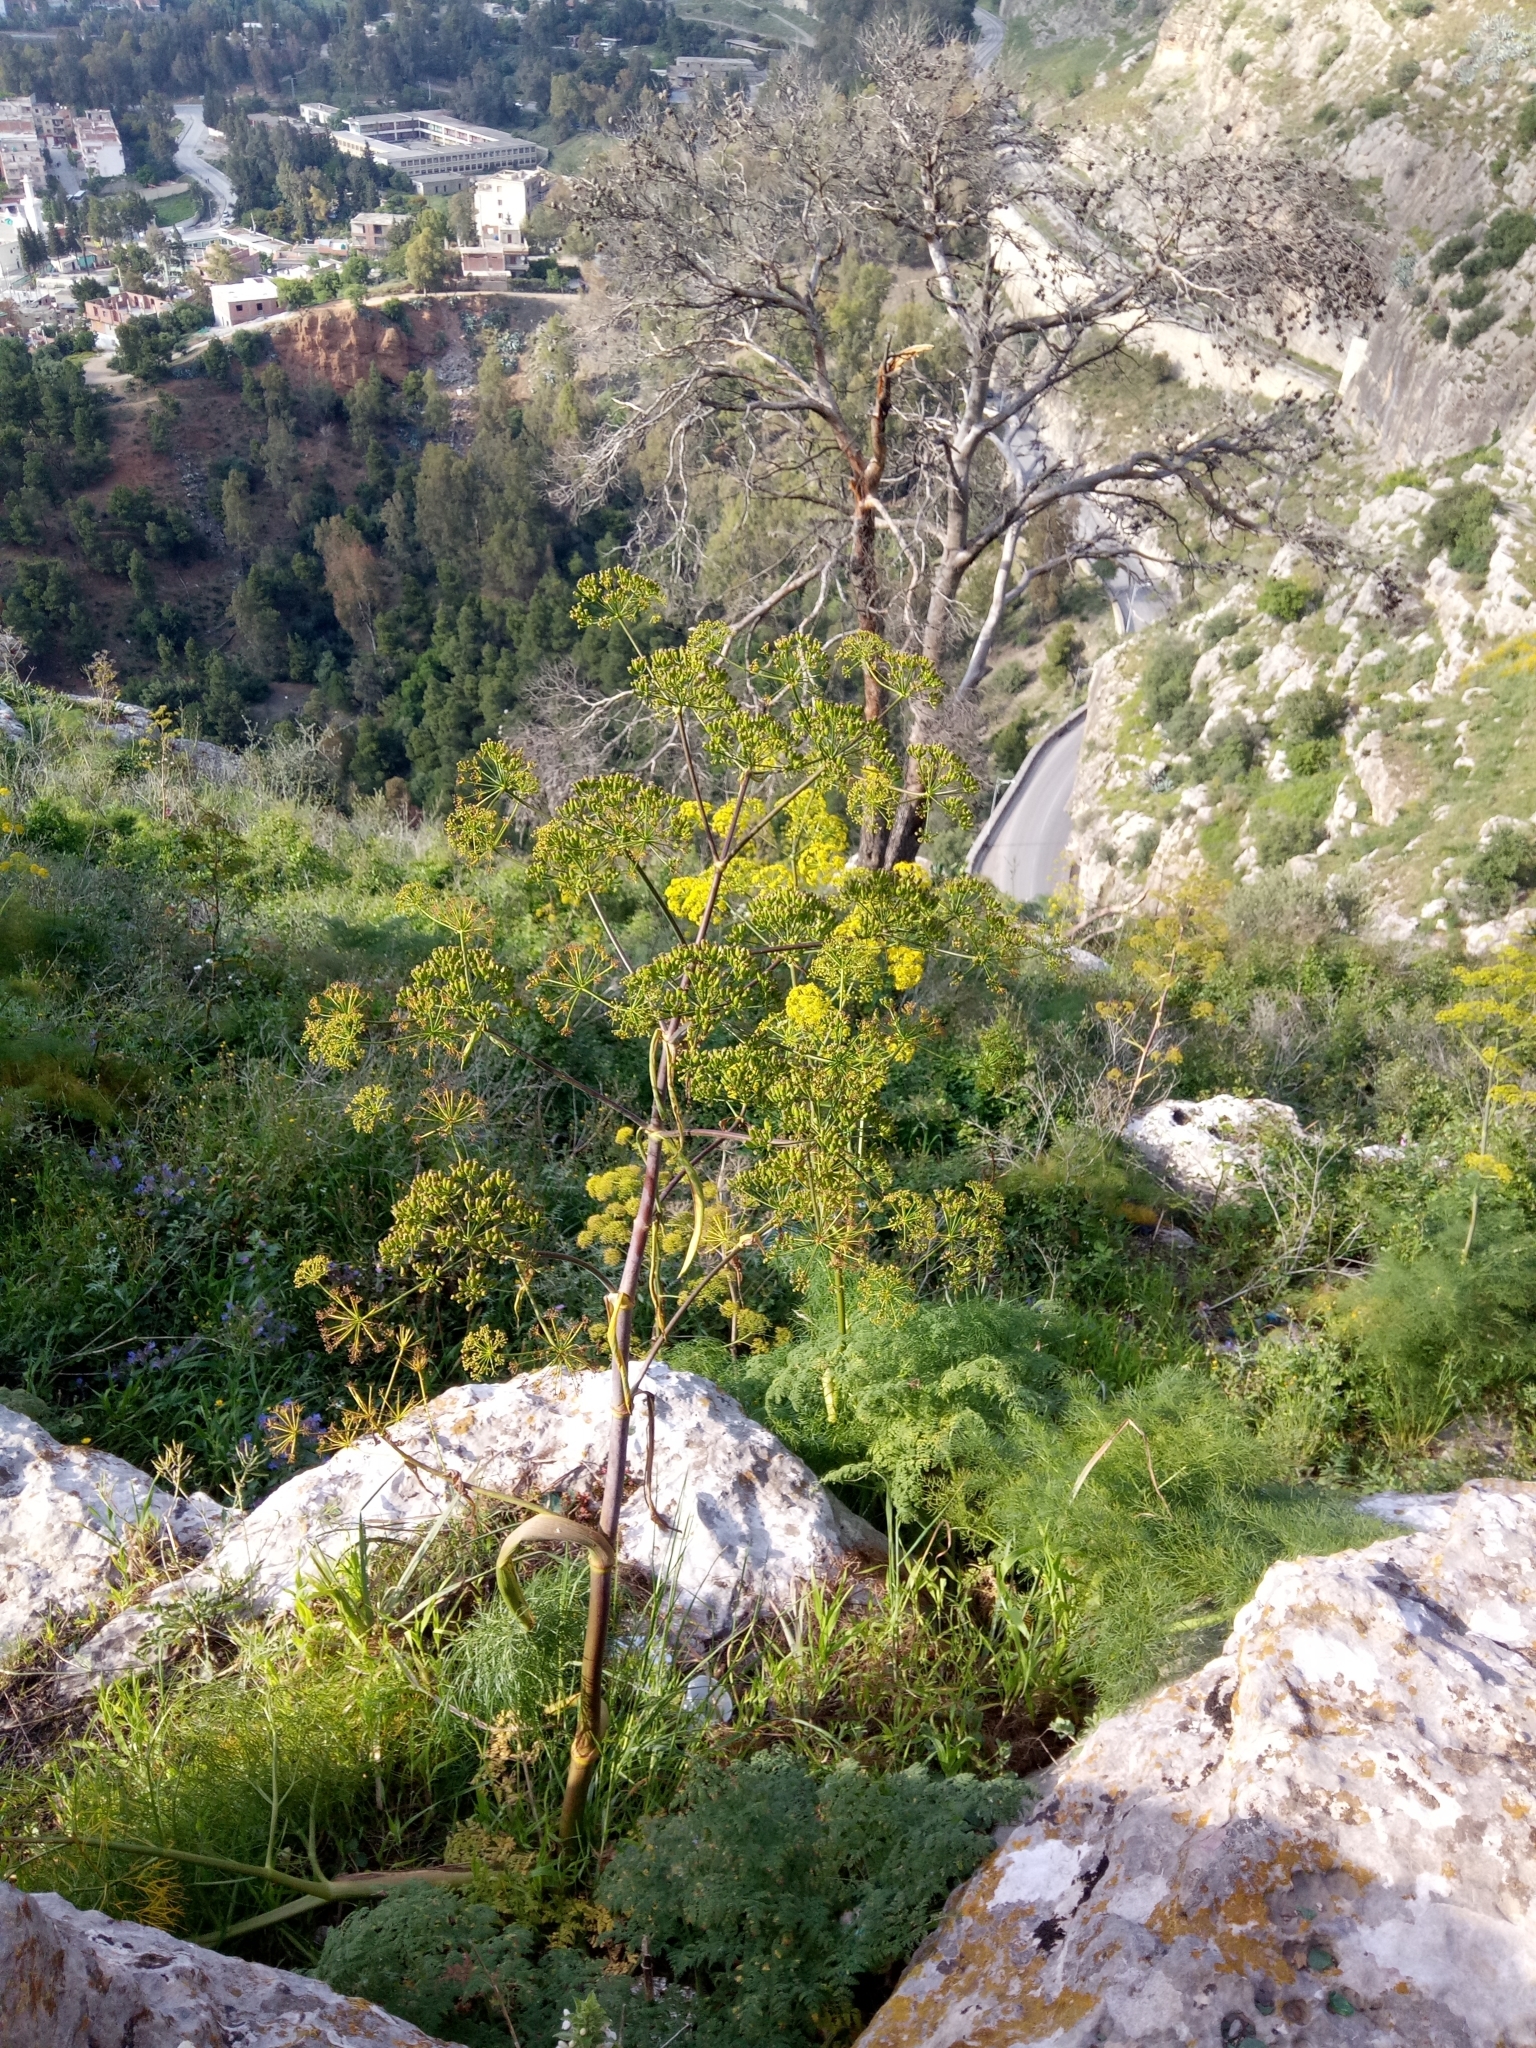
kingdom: Plantae
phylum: Tracheophyta
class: Magnoliopsida
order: Apiales
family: Apiaceae
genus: Ferula
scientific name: Ferula communis
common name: Giant fennel
